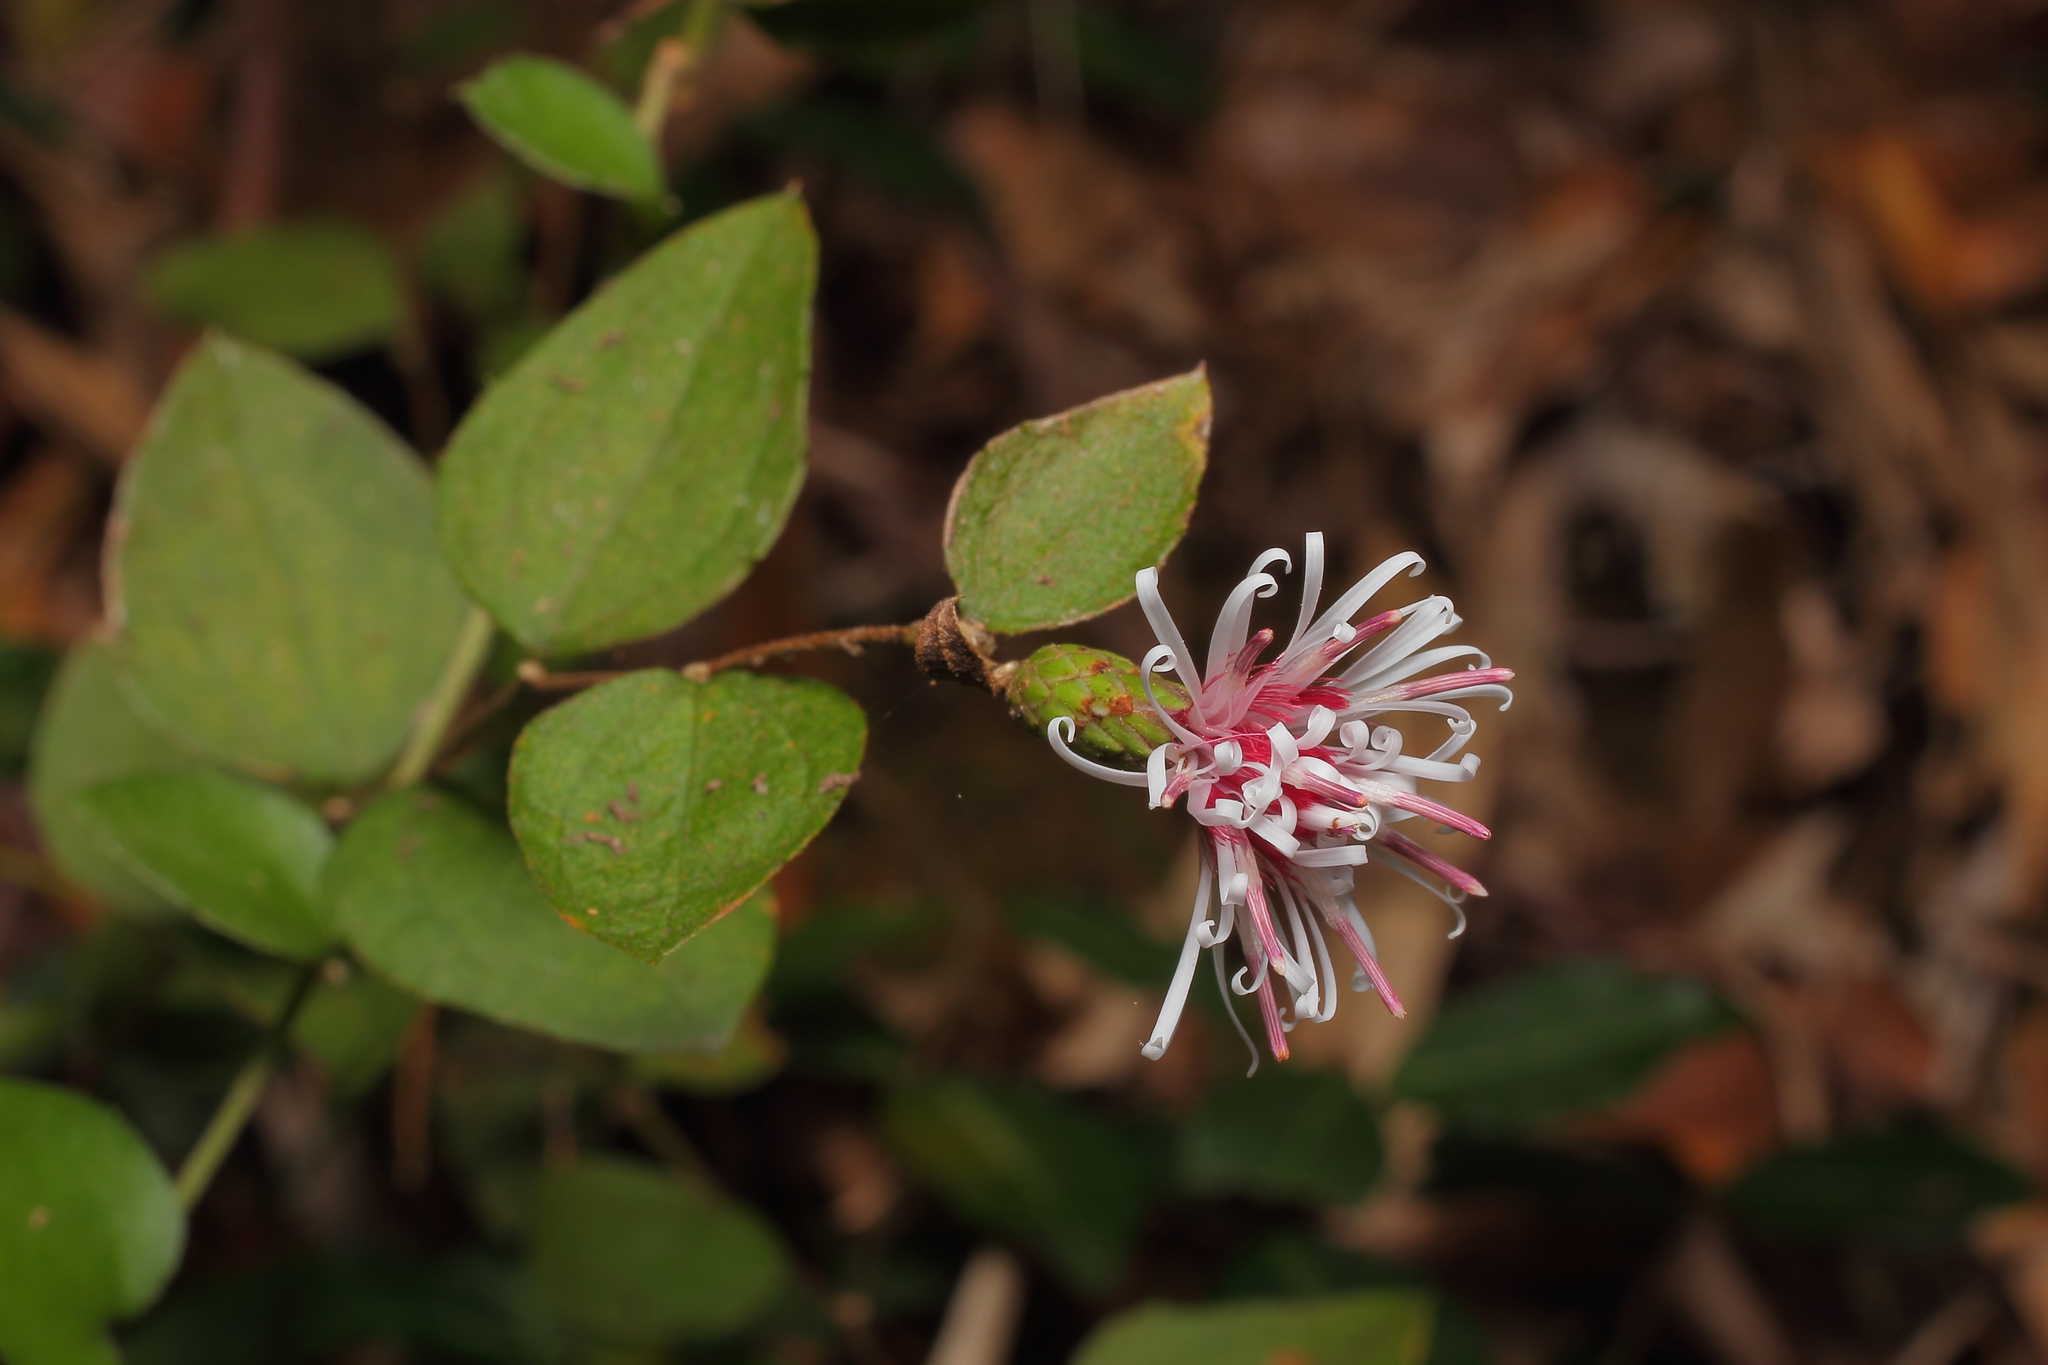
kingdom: Plantae
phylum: Tracheophyta
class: Magnoliopsida
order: Asterales
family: Asteraceae
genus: Pertya
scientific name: Pertya scandens
